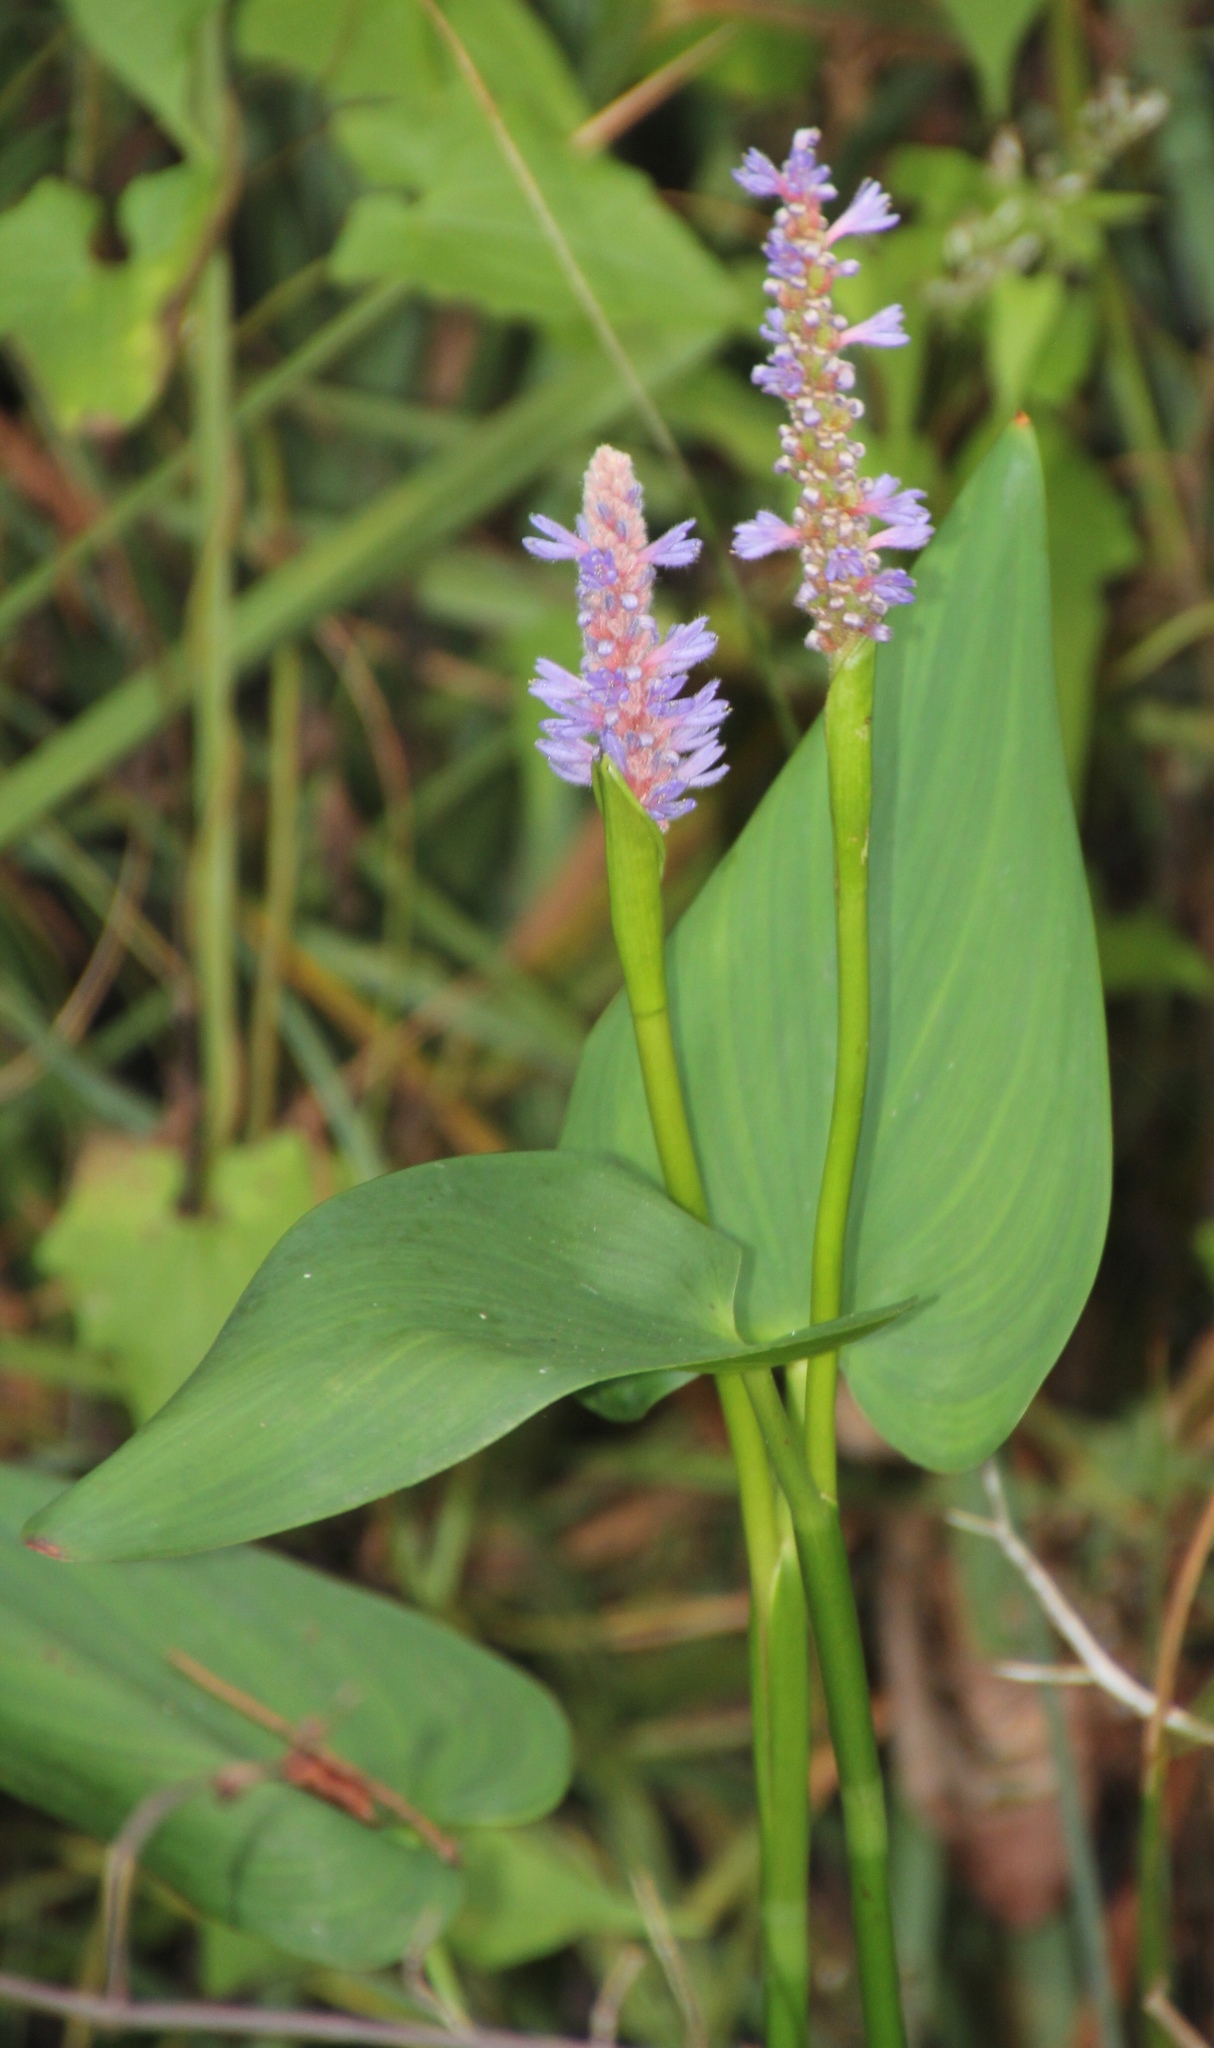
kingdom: Plantae
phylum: Tracheophyta
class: Liliopsida
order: Commelinales
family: Pontederiaceae
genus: Pontederia
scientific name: Pontederia cordata
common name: Pickerelweed
